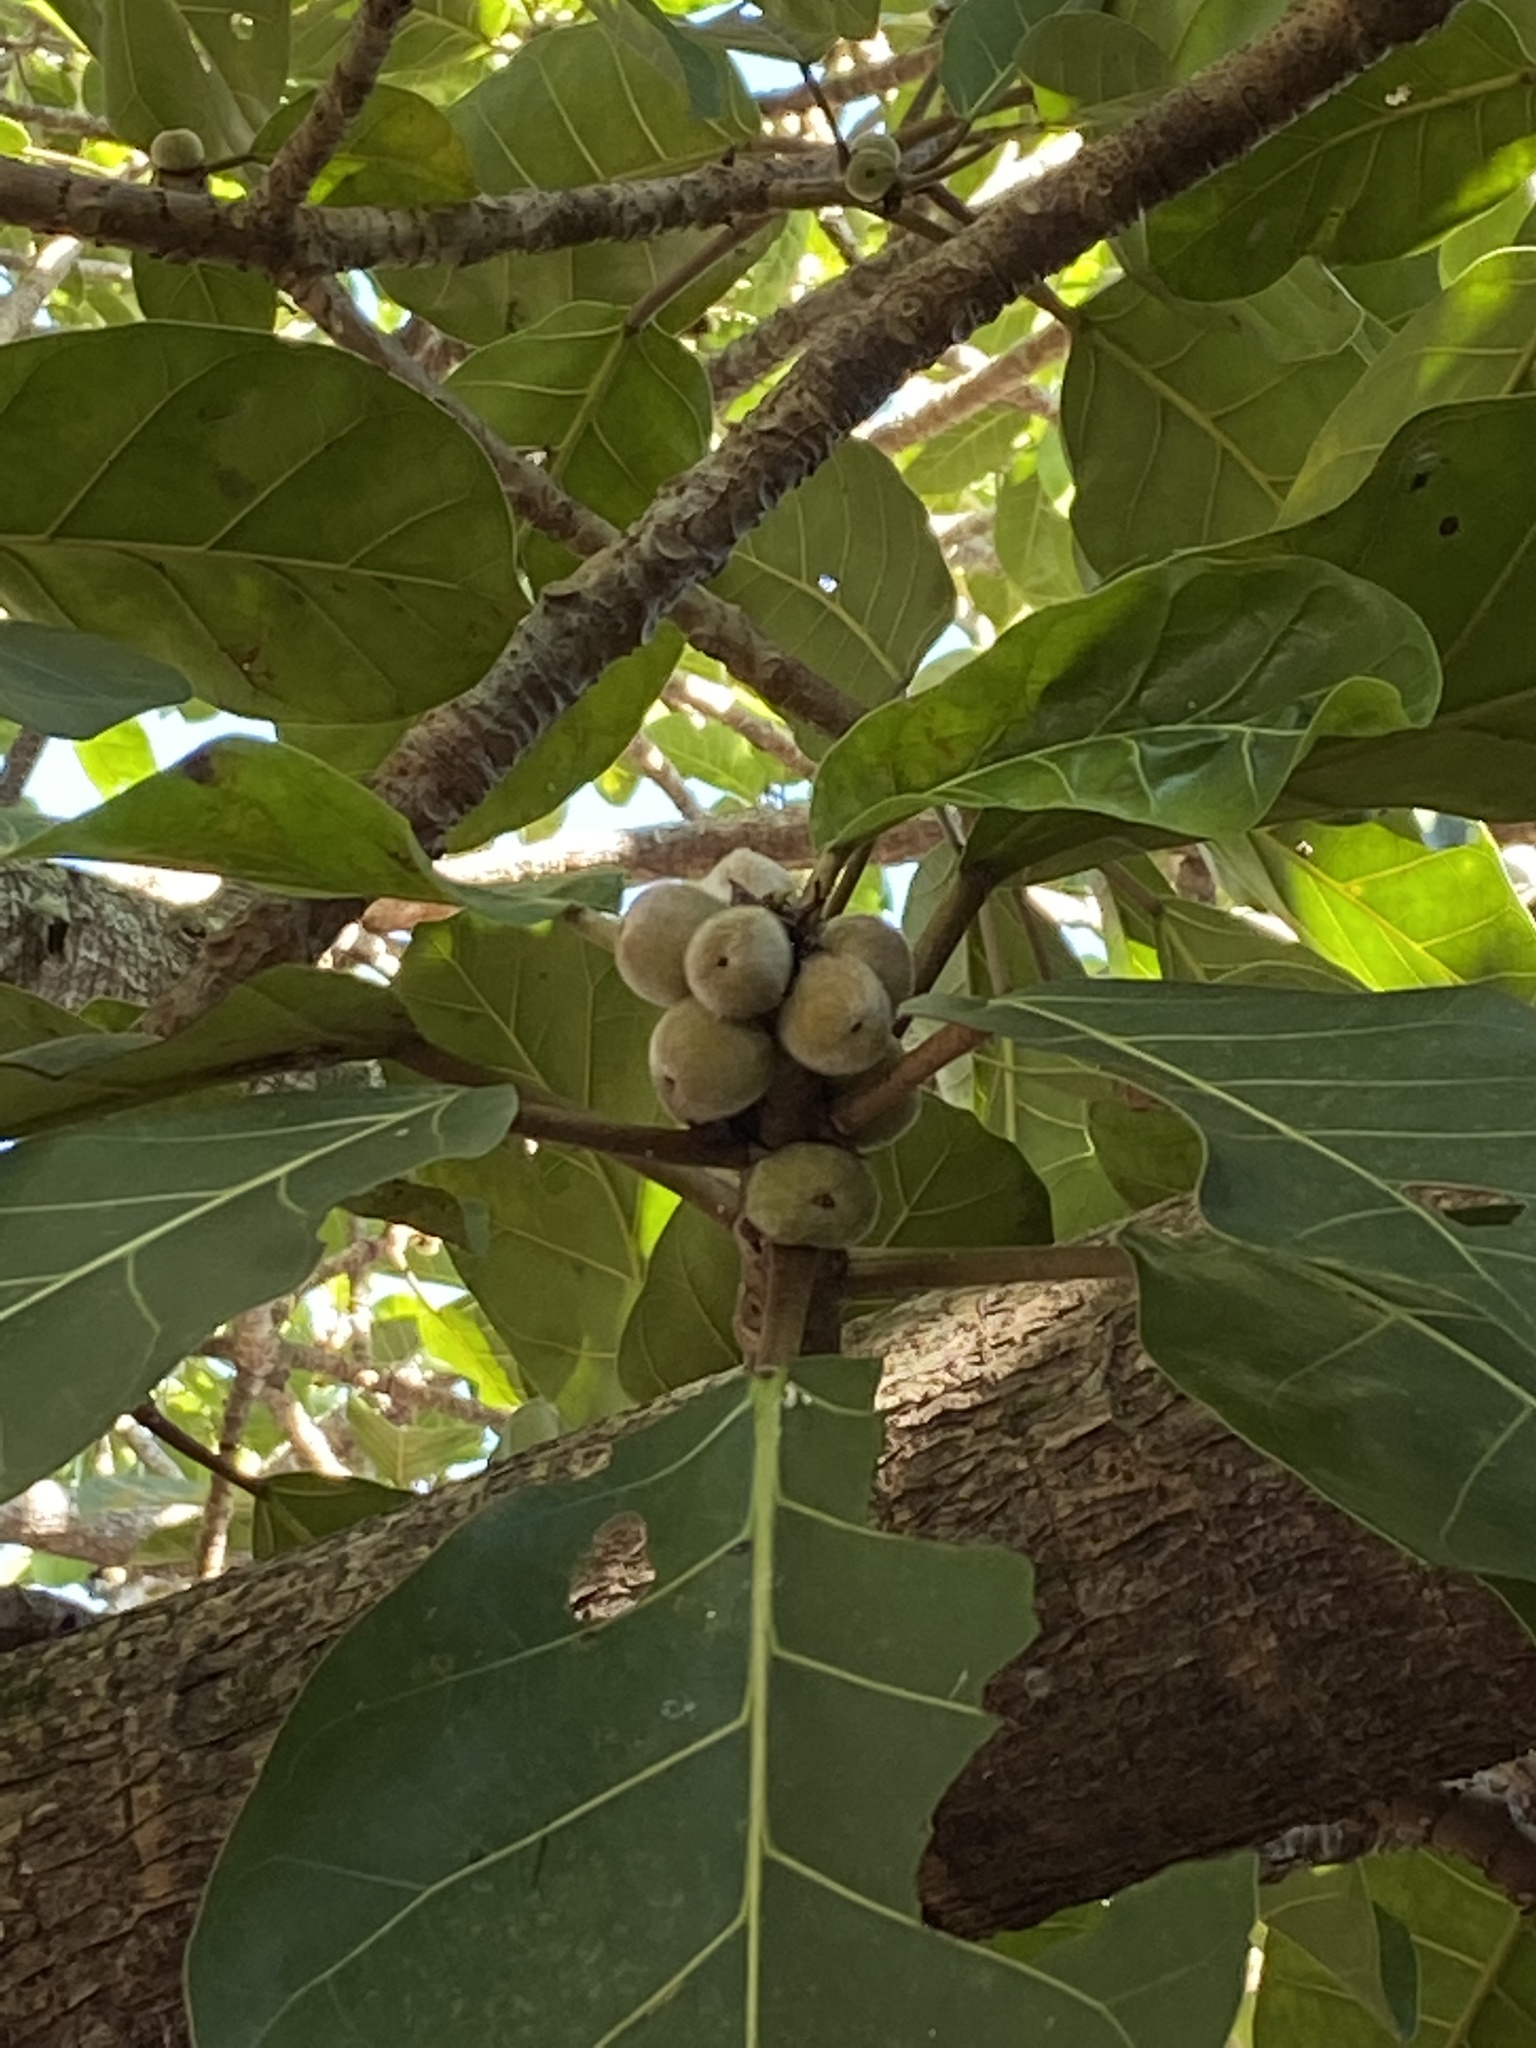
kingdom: Plantae
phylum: Tracheophyta
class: Magnoliopsida
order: Rosales
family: Moraceae
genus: Ficus
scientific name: Ficus lutea
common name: Giant-leaved fig
